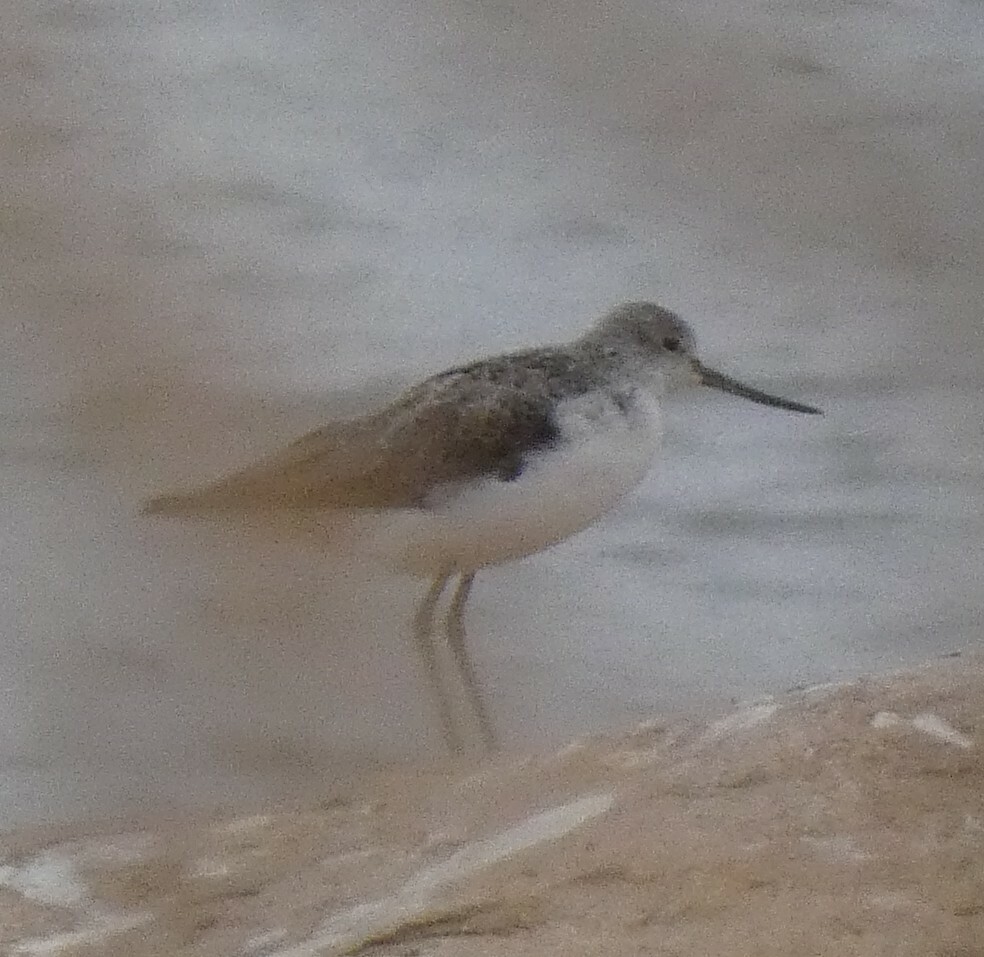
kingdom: Animalia
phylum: Chordata
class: Aves
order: Charadriiformes
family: Scolopacidae
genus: Tringa
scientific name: Tringa nebularia
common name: Common greenshank
